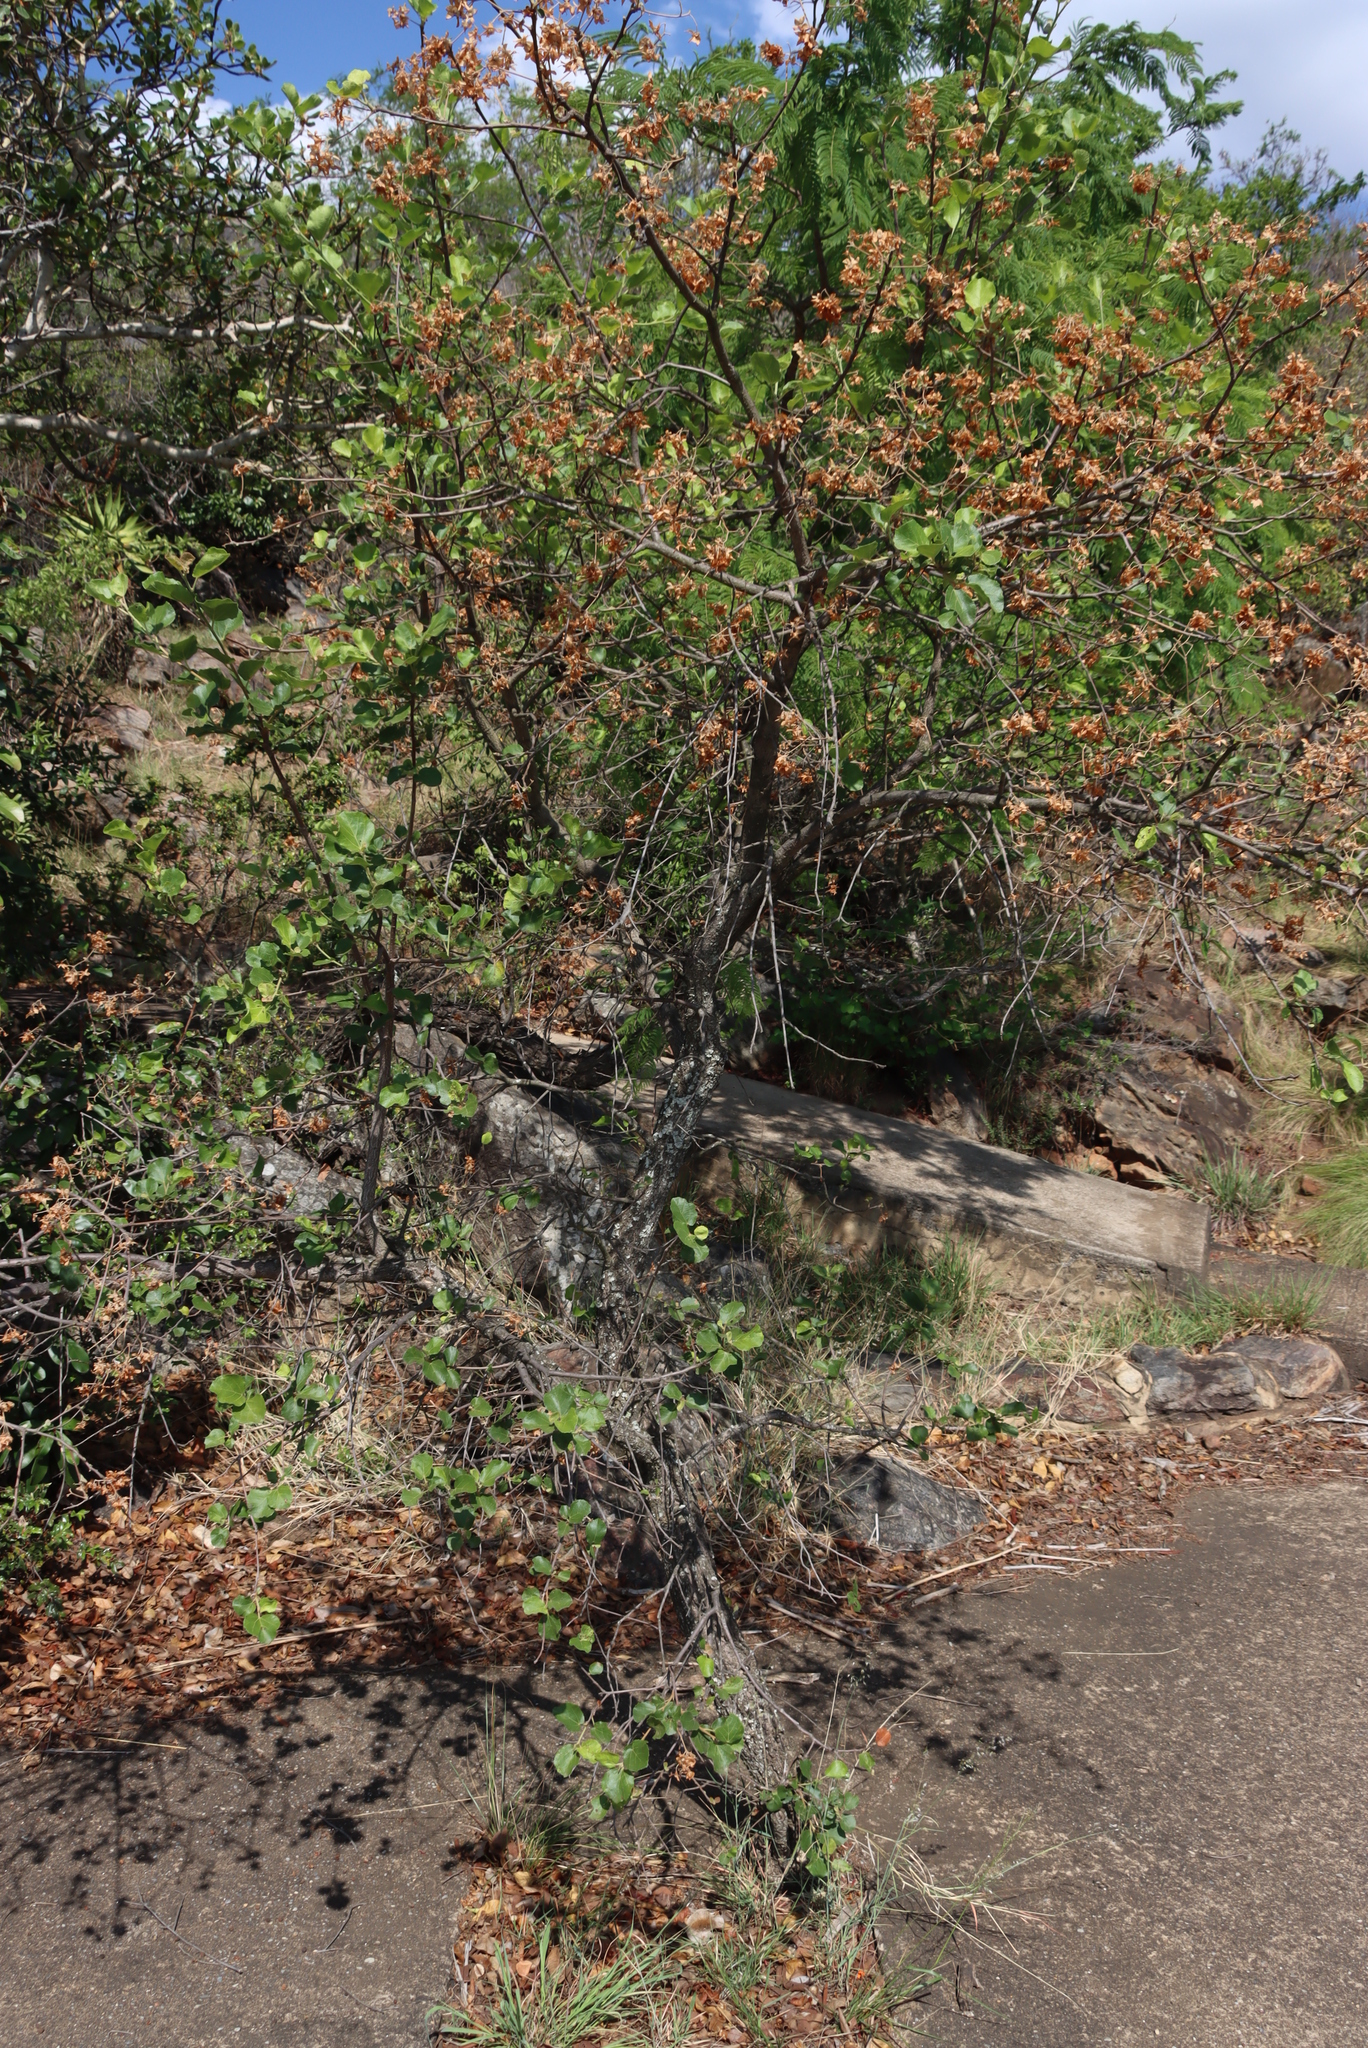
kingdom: Plantae
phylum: Tracheophyta
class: Magnoliopsida
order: Malvales
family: Malvaceae
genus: Dombeya
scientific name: Dombeya rotundifolia
